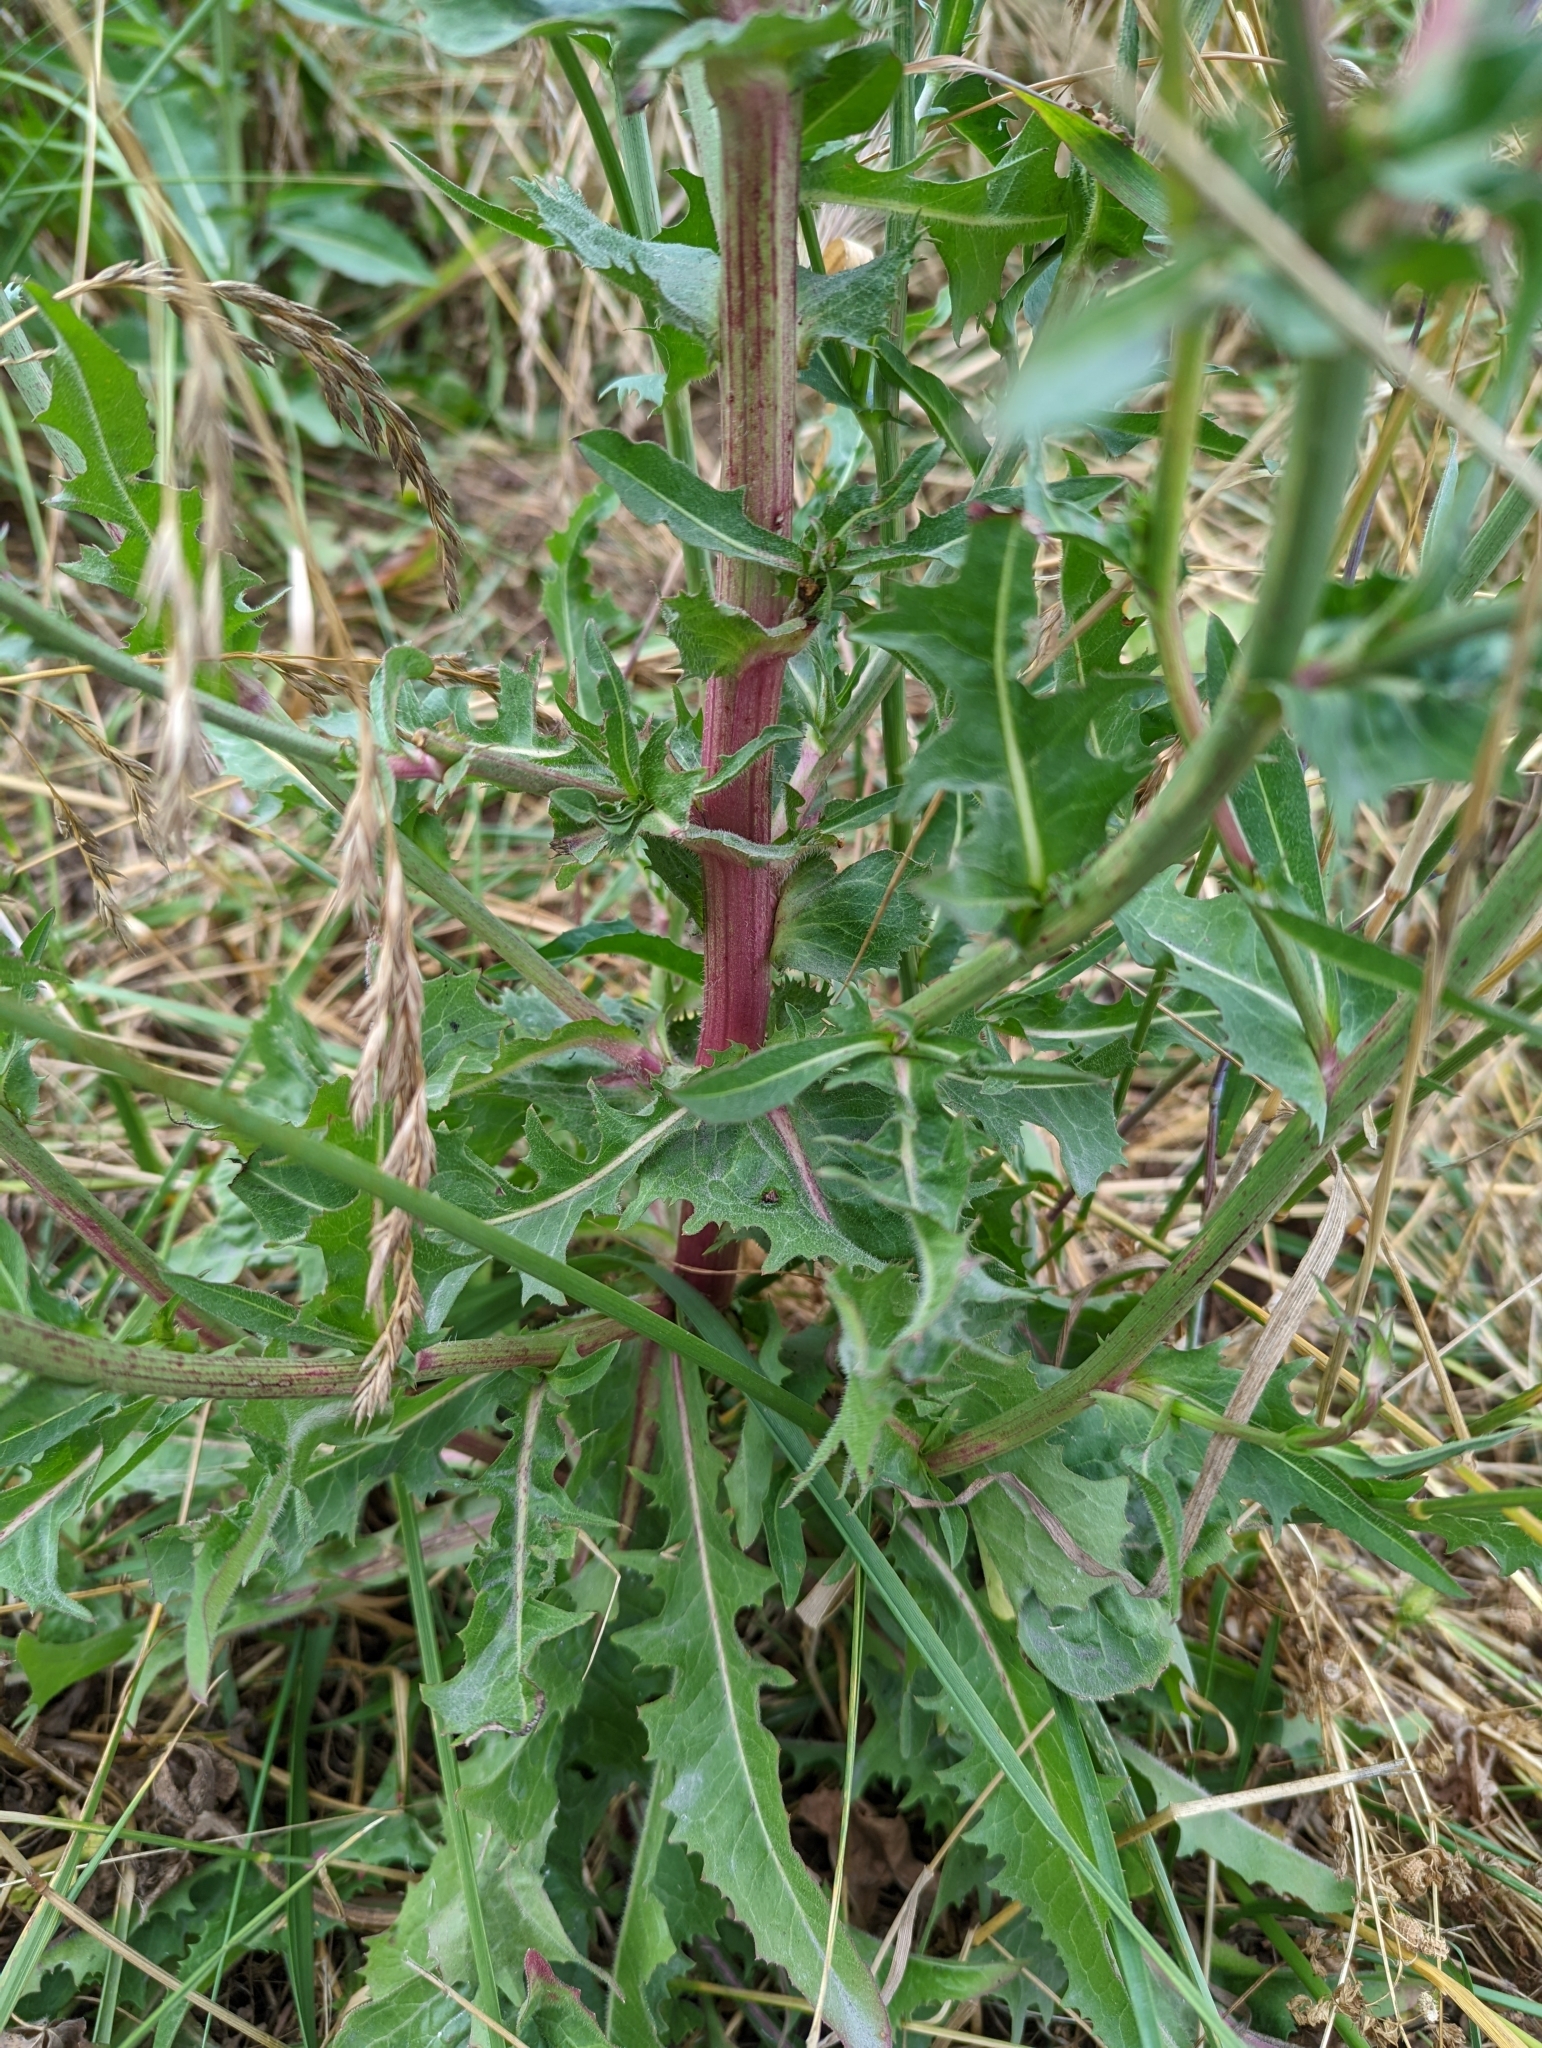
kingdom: Plantae
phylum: Tracheophyta
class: Magnoliopsida
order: Asterales
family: Asteraceae
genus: Cichorium
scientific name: Cichorium intybus
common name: Chicory
